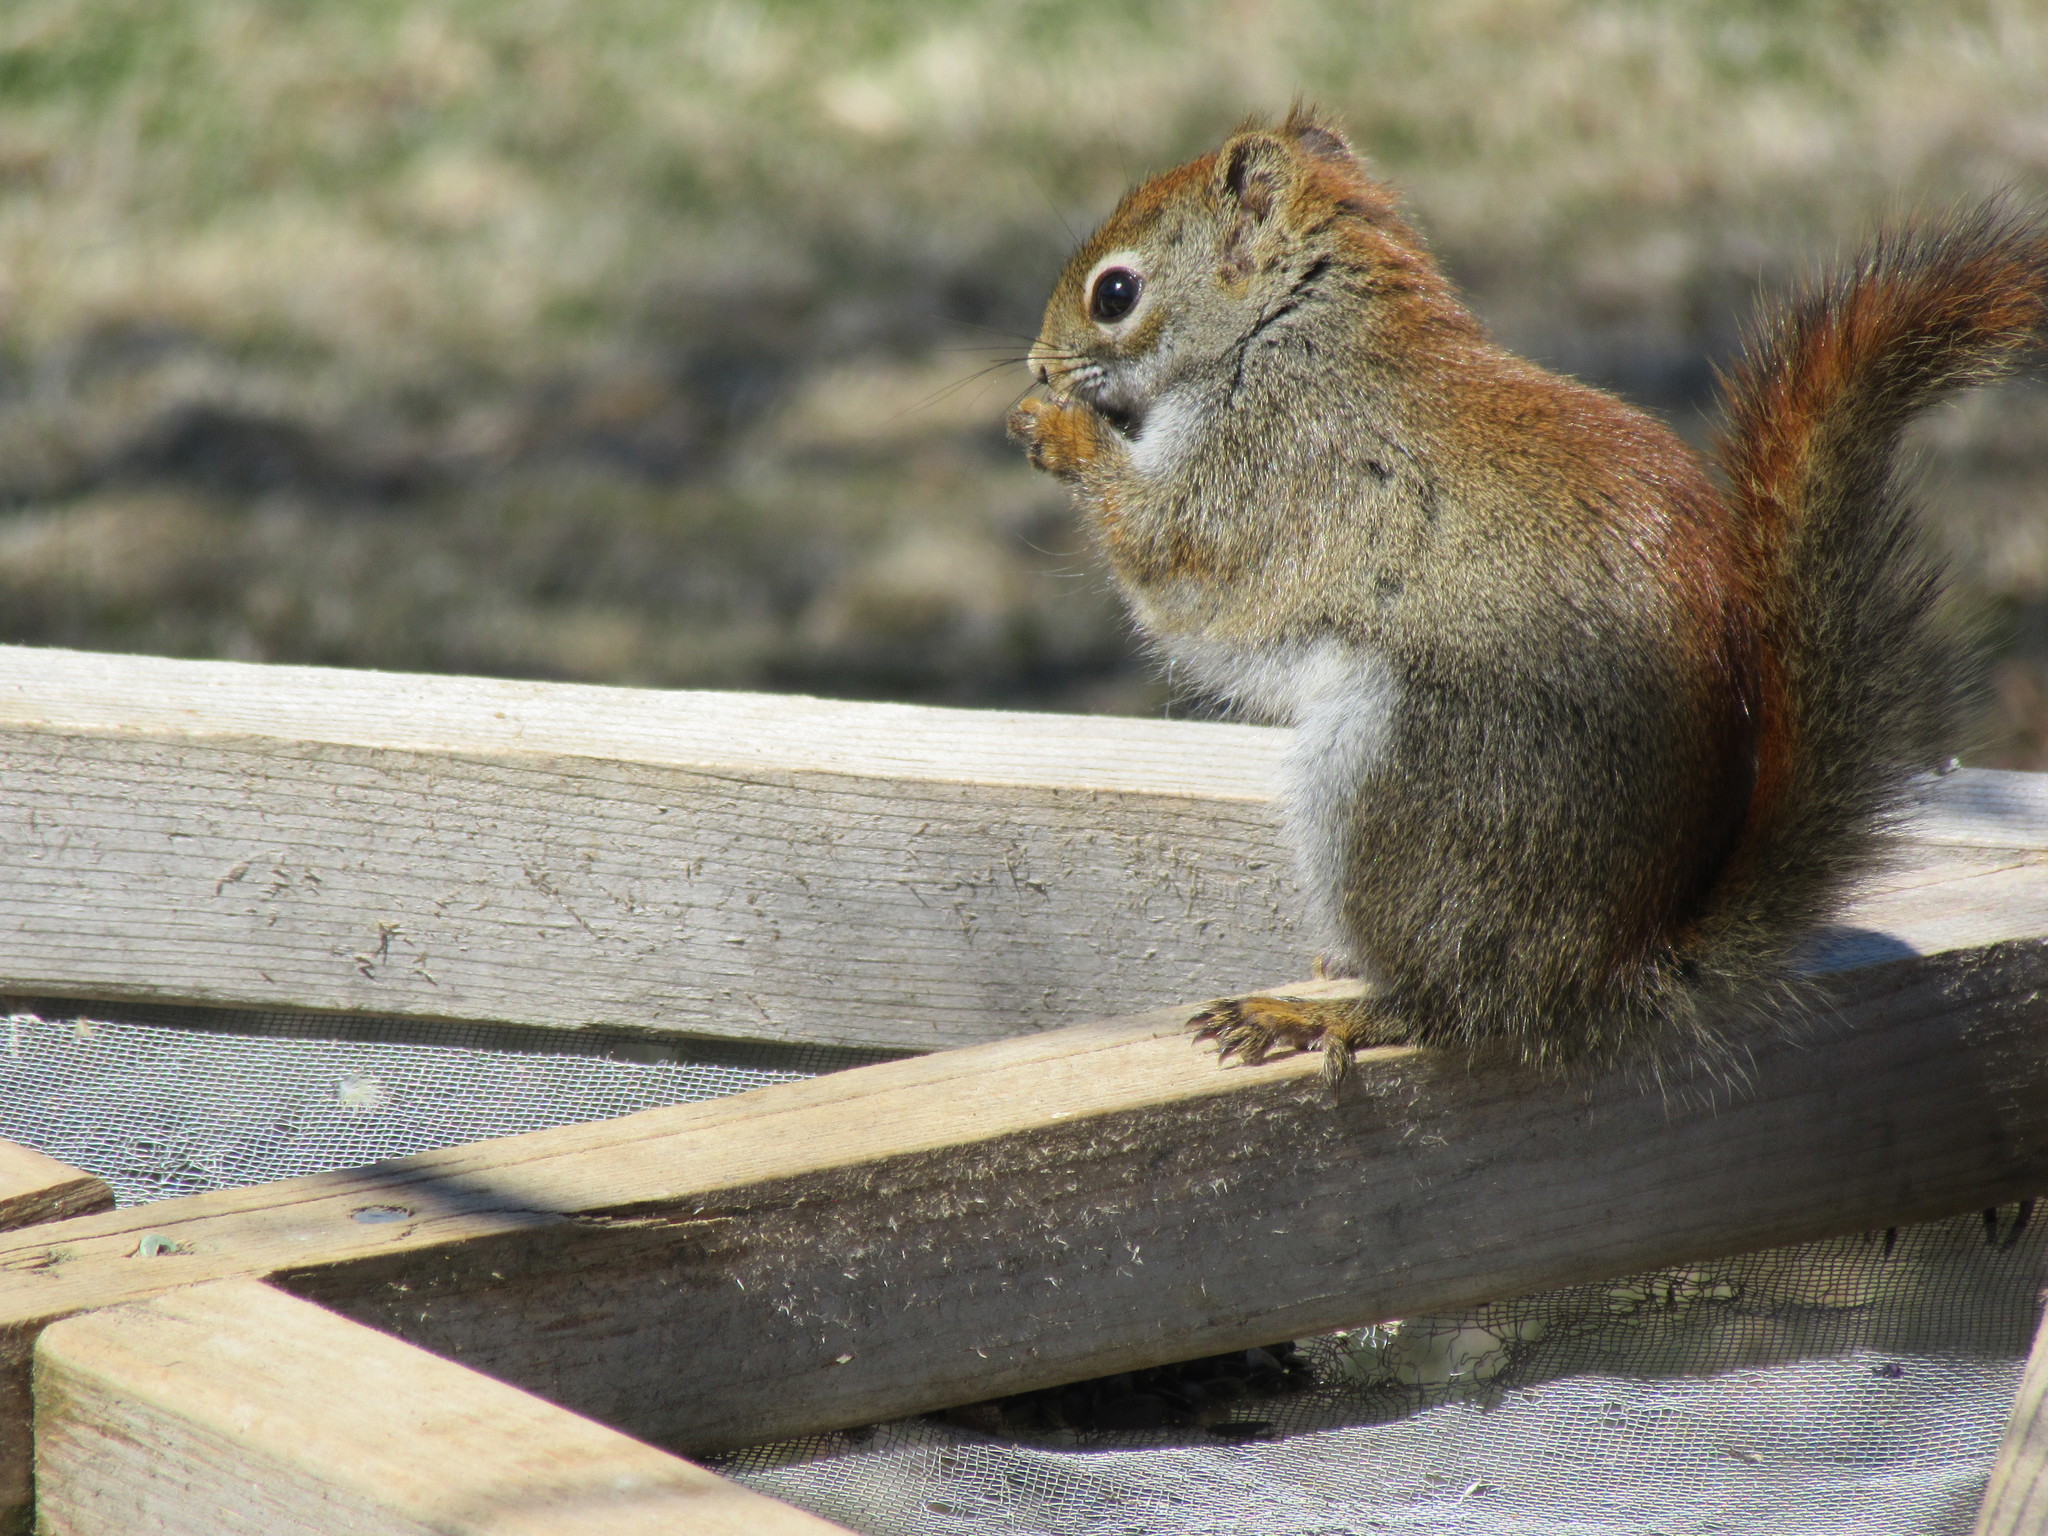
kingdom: Animalia
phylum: Chordata
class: Mammalia
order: Rodentia
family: Sciuridae
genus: Tamiasciurus
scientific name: Tamiasciurus hudsonicus
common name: Red squirrel
